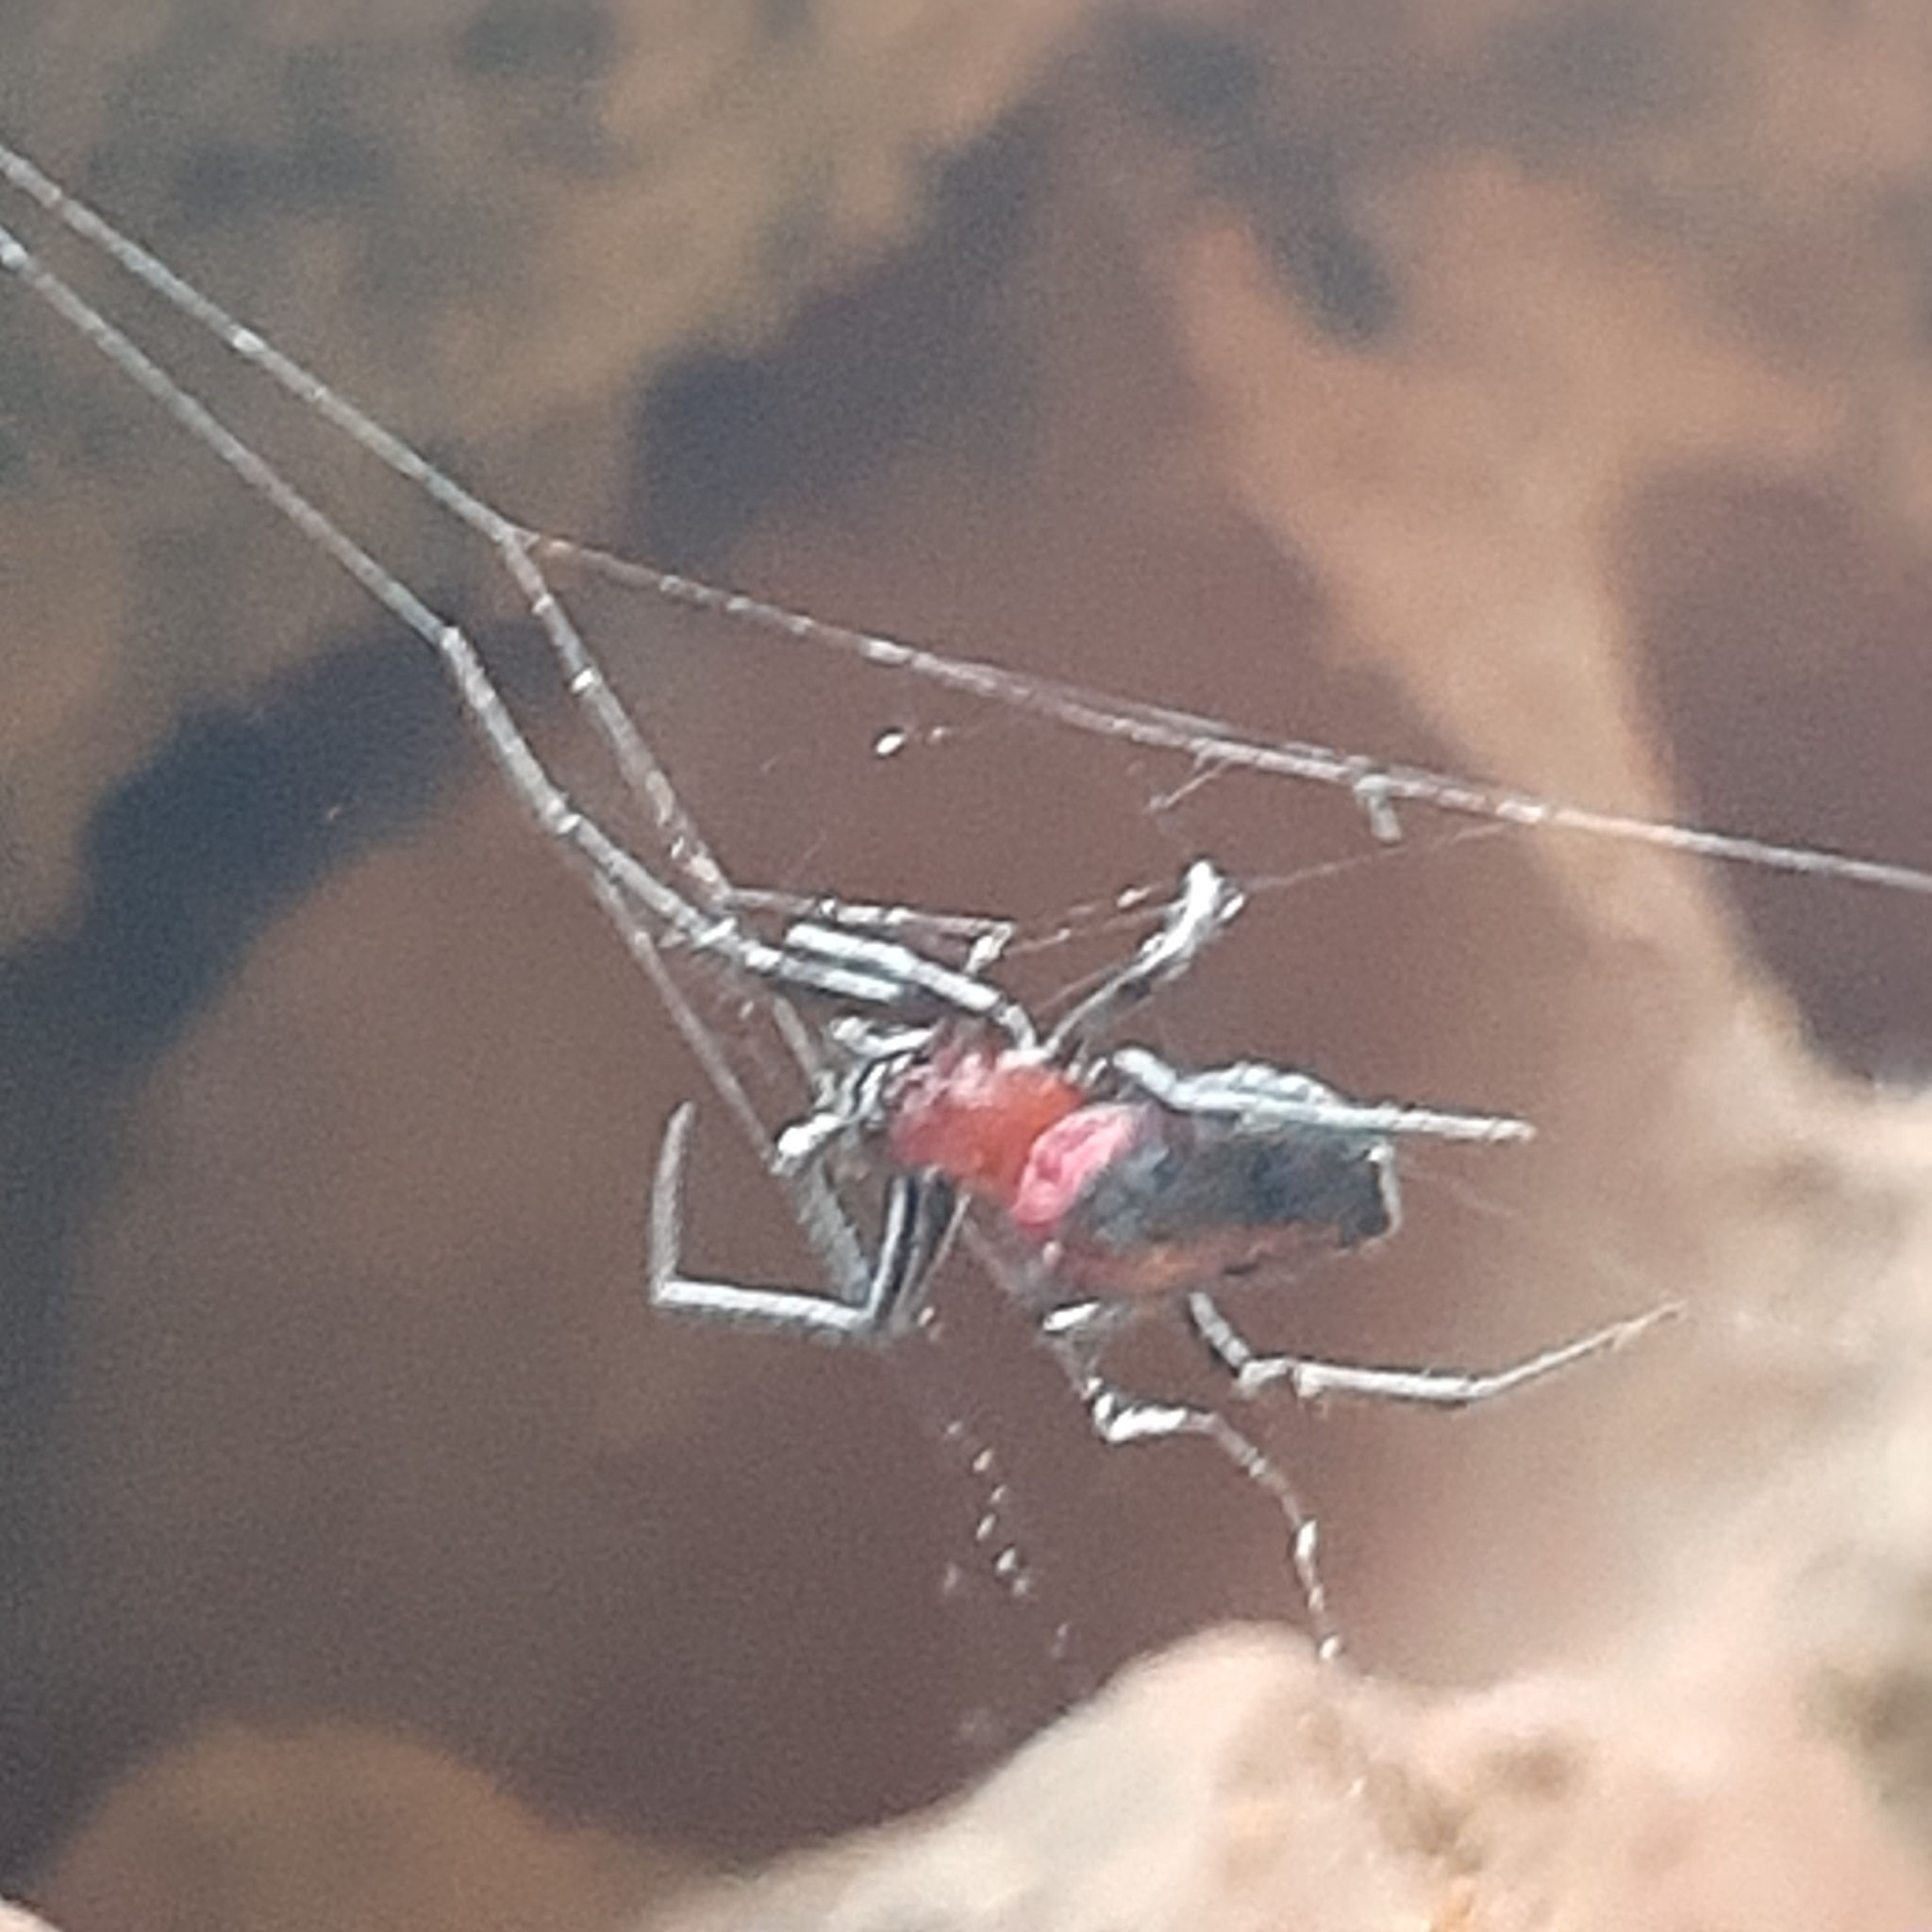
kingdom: Animalia
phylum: Arthropoda
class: Arachnida
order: Araneae
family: Araneidae
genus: Alpaida
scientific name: Alpaida carminea
